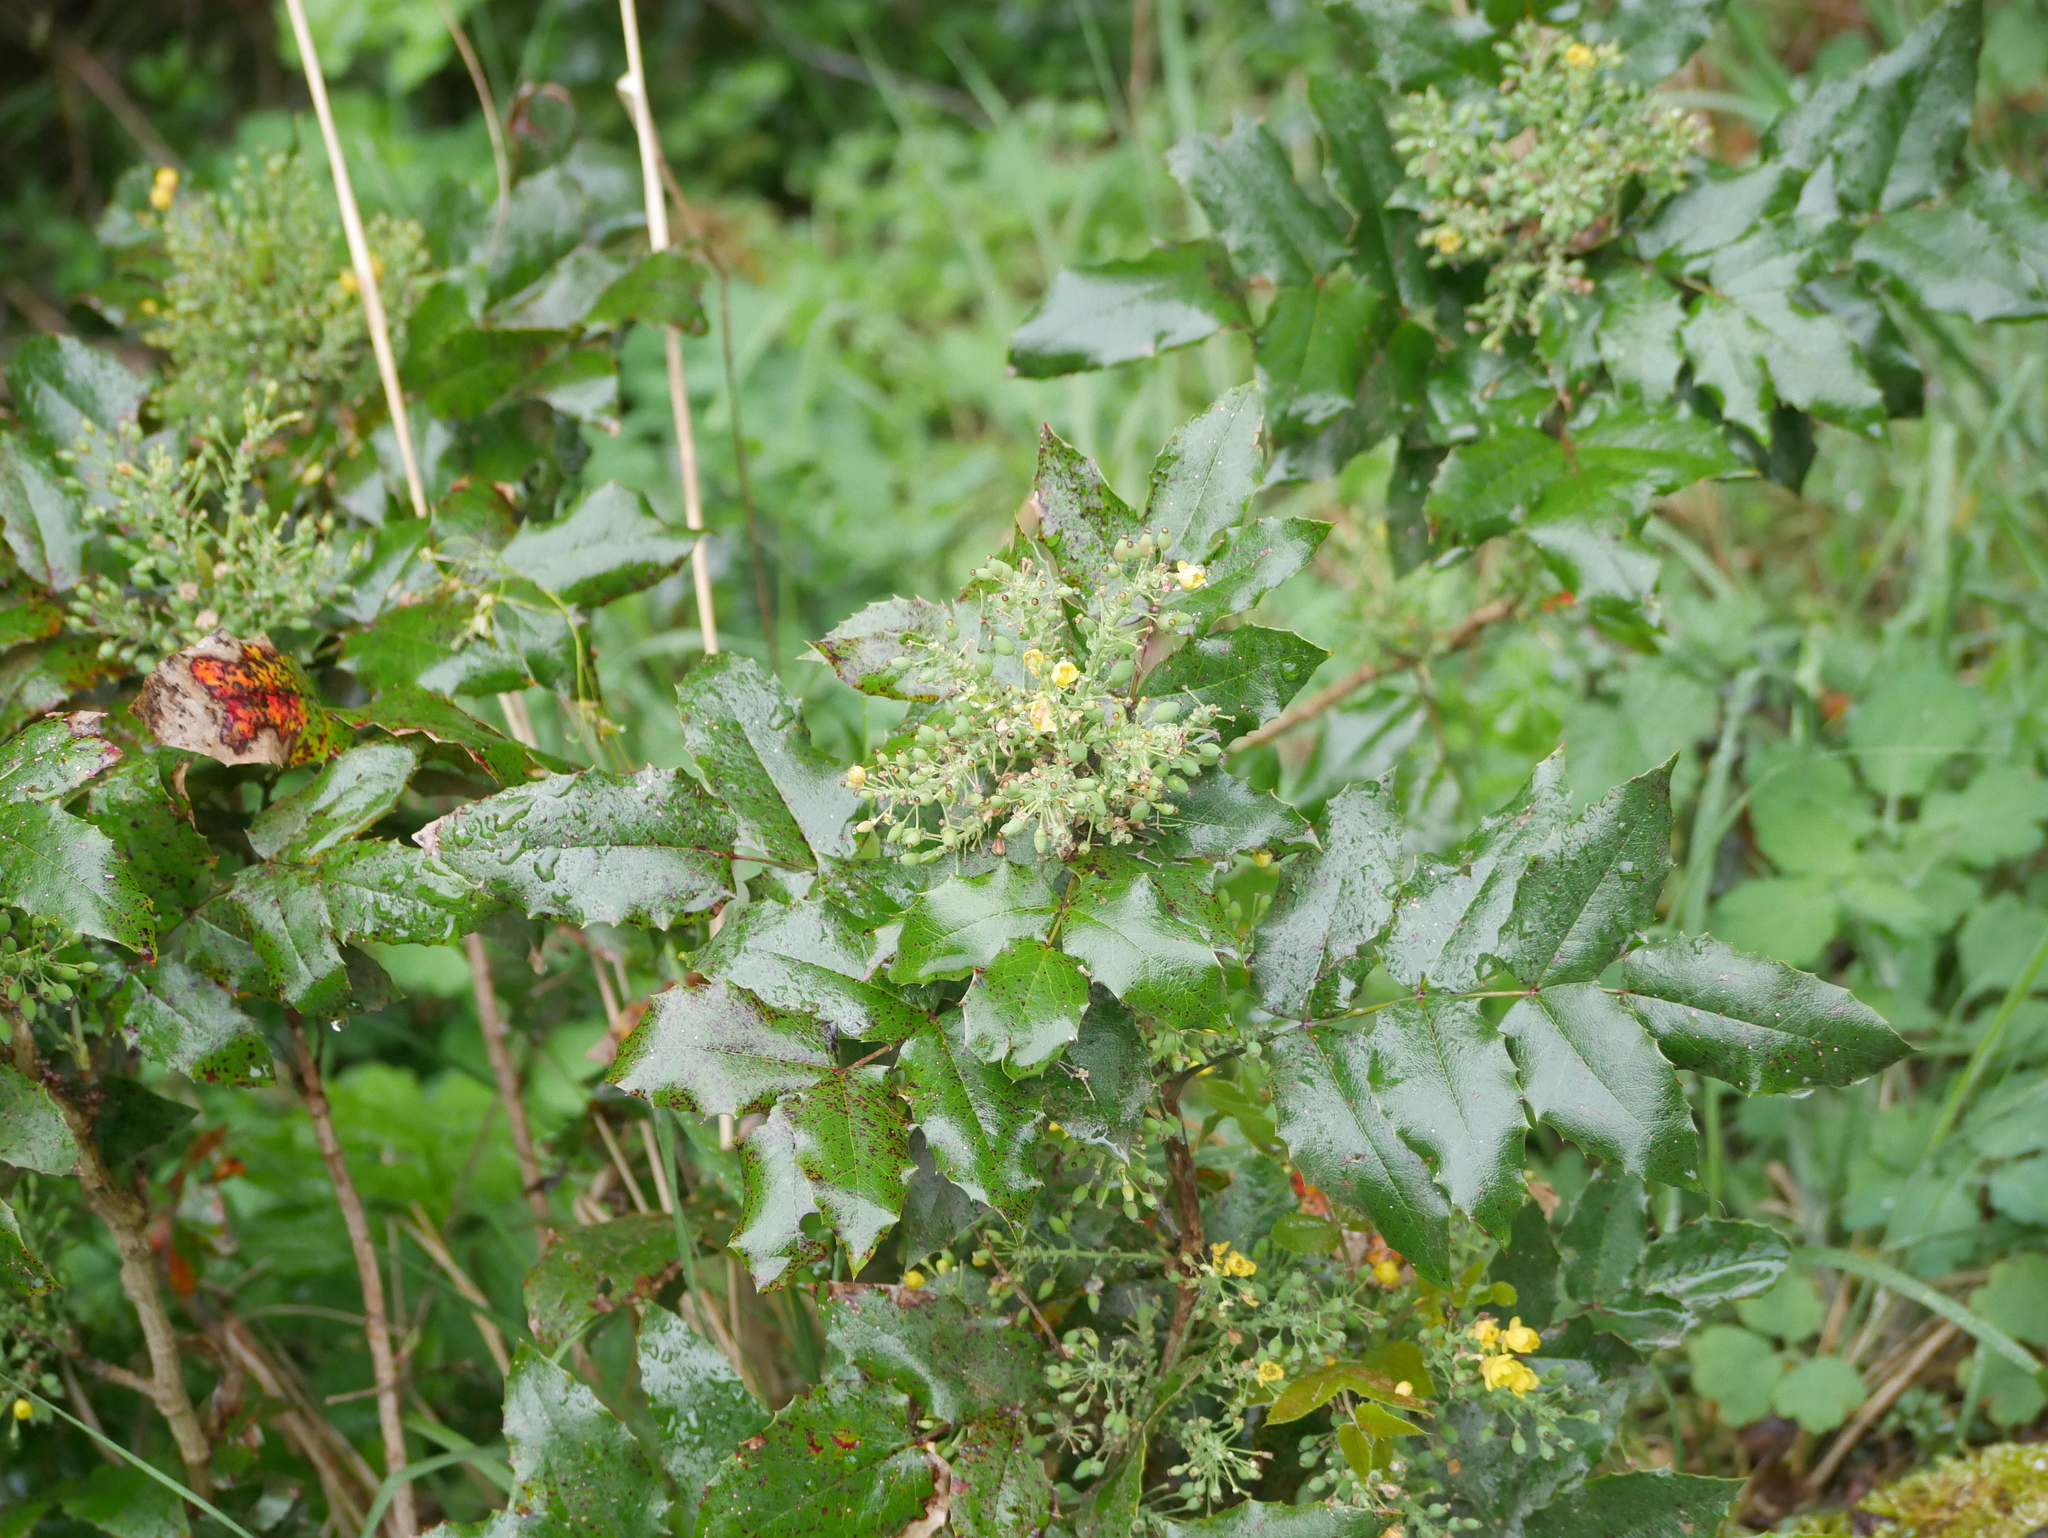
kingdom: Plantae
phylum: Tracheophyta
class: Magnoliopsida
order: Ranunculales
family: Berberidaceae
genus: Mahonia
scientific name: Mahonia aquifolium
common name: Oregon-grape
